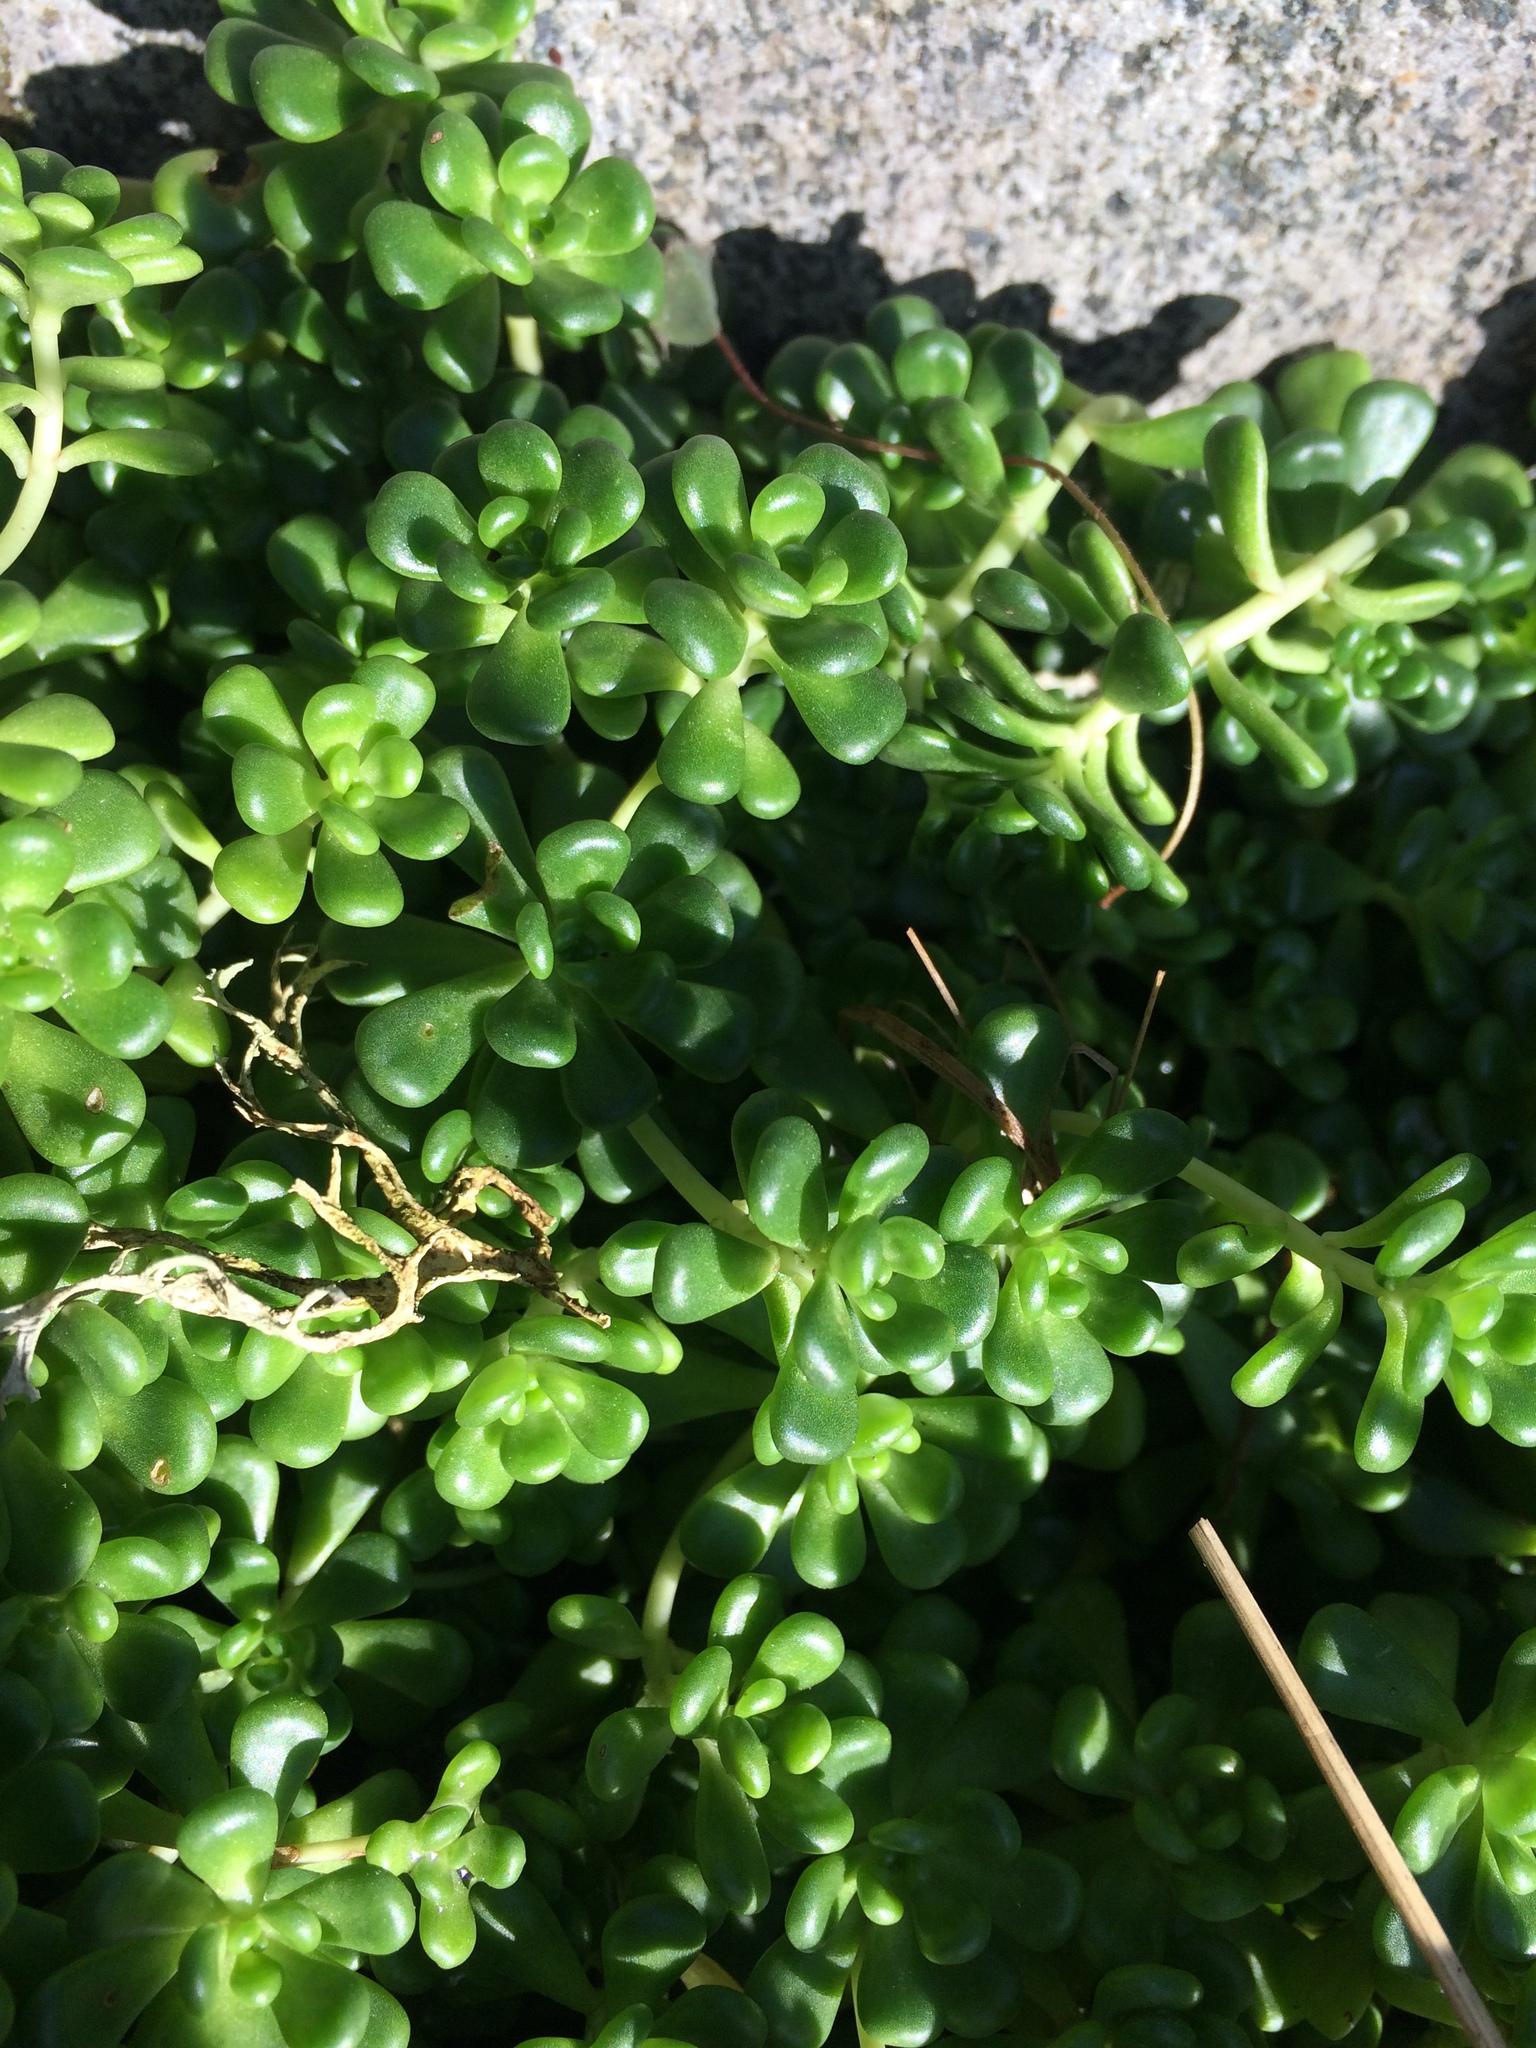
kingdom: Plantae
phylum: Tracheophyta
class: Magnoliopsida
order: Saxifragales
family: Crassulaceae
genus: Sedum
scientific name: Sedum oreganum
